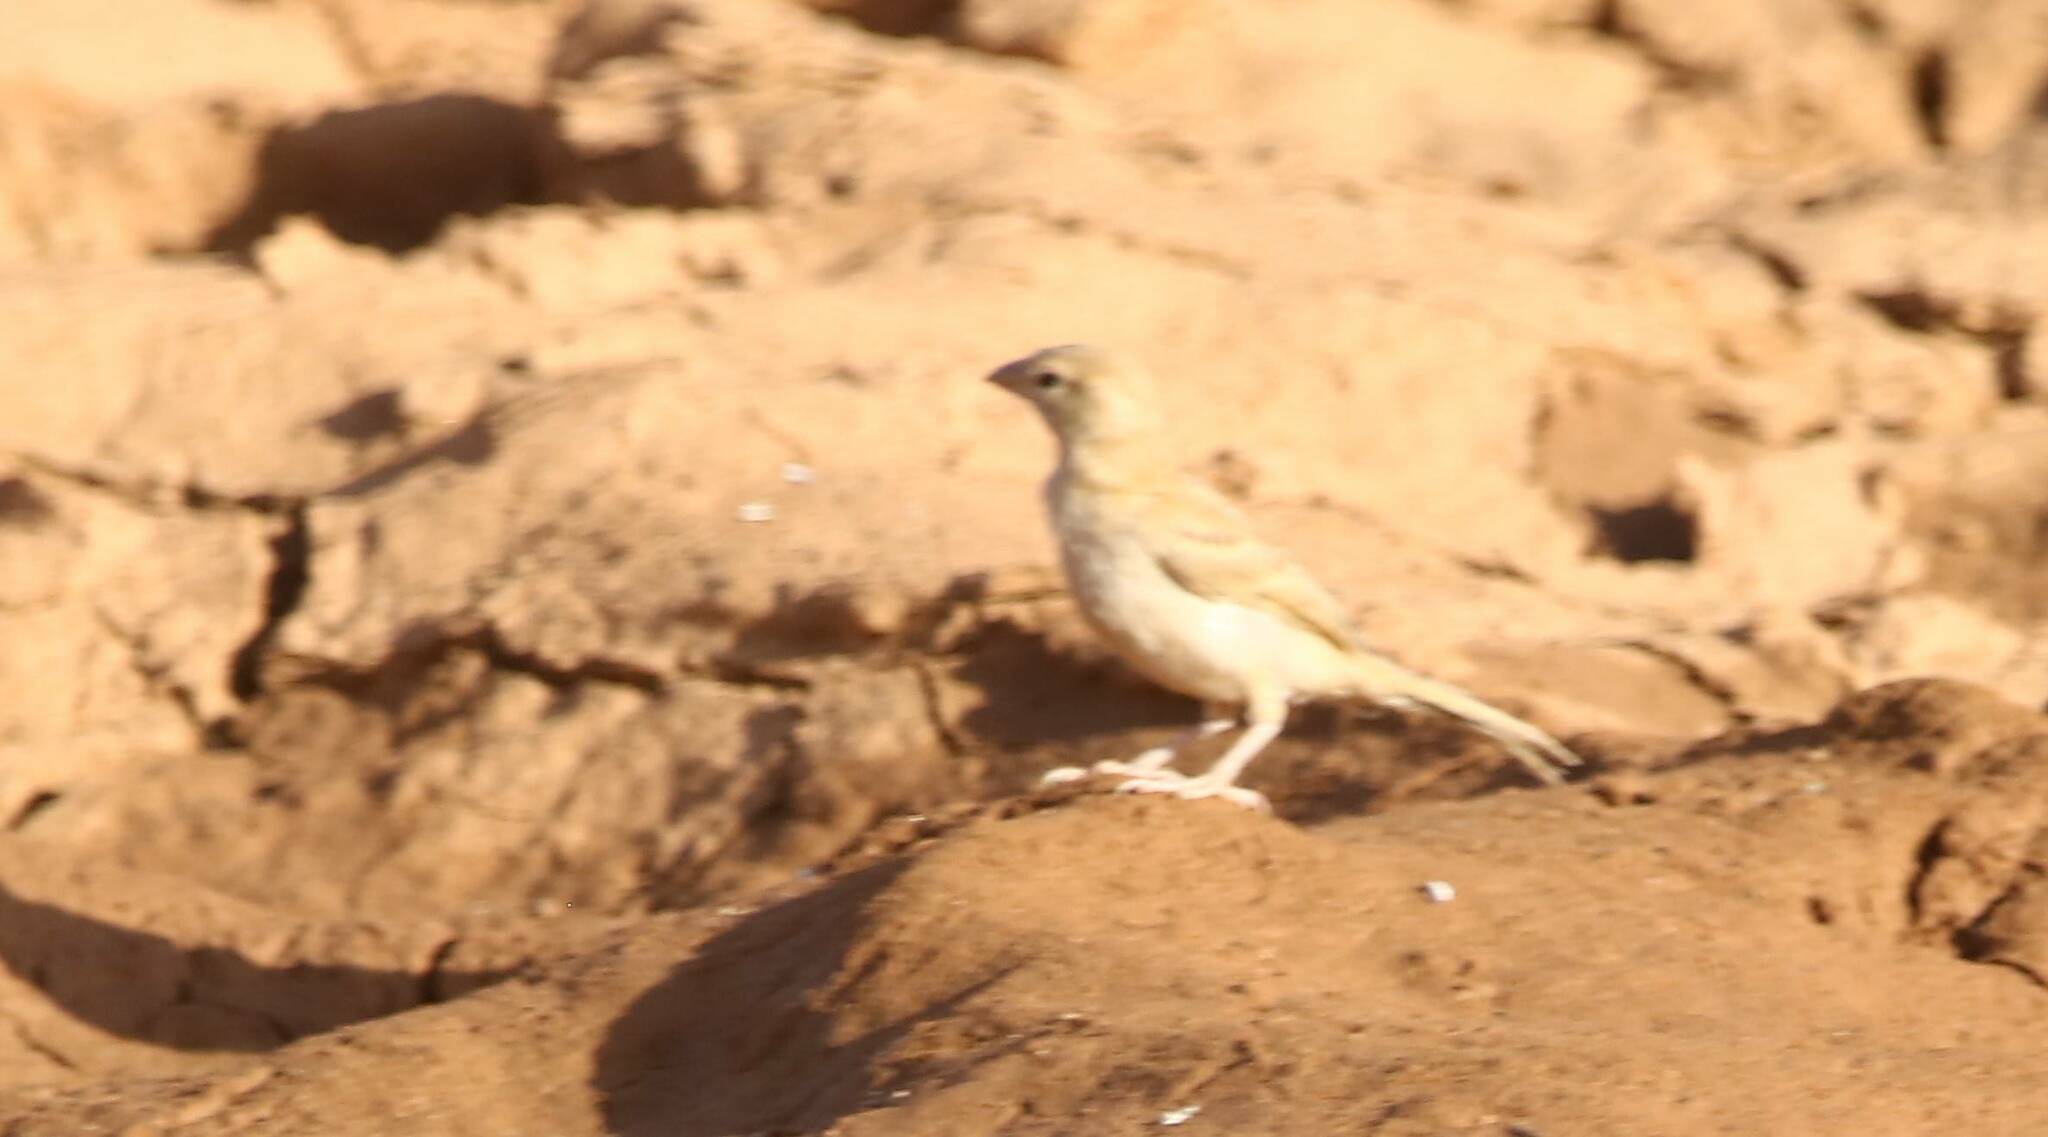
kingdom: Animalia
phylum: Chordata
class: Aves
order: Passeriformes
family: Passeridae
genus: Passer
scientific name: Passer simplex
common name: Desert sparrow
